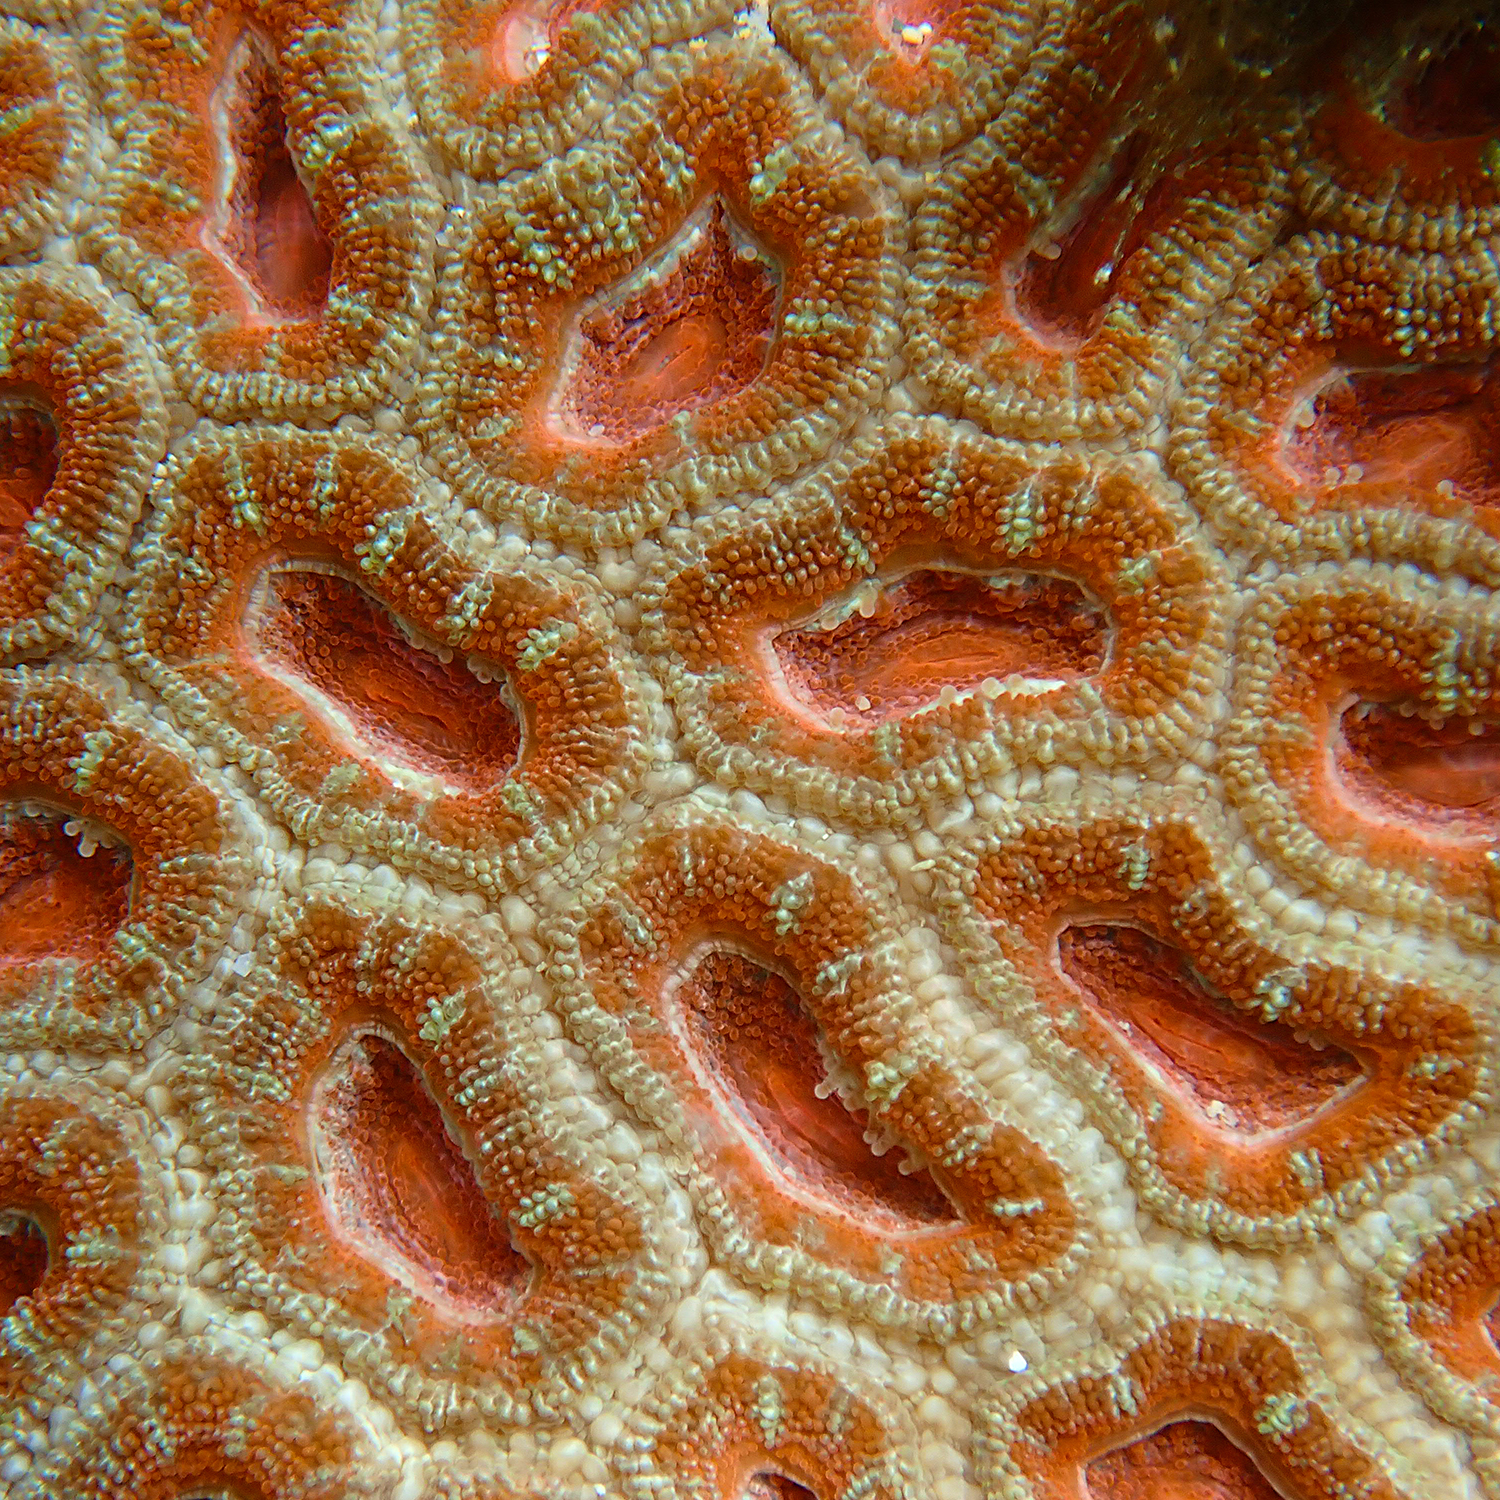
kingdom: Animalia
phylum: Cnidaria
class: Anthozoa
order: Scleractinia
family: Lobophylliidae
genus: Micromussa
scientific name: Micromussa lordhowensis
